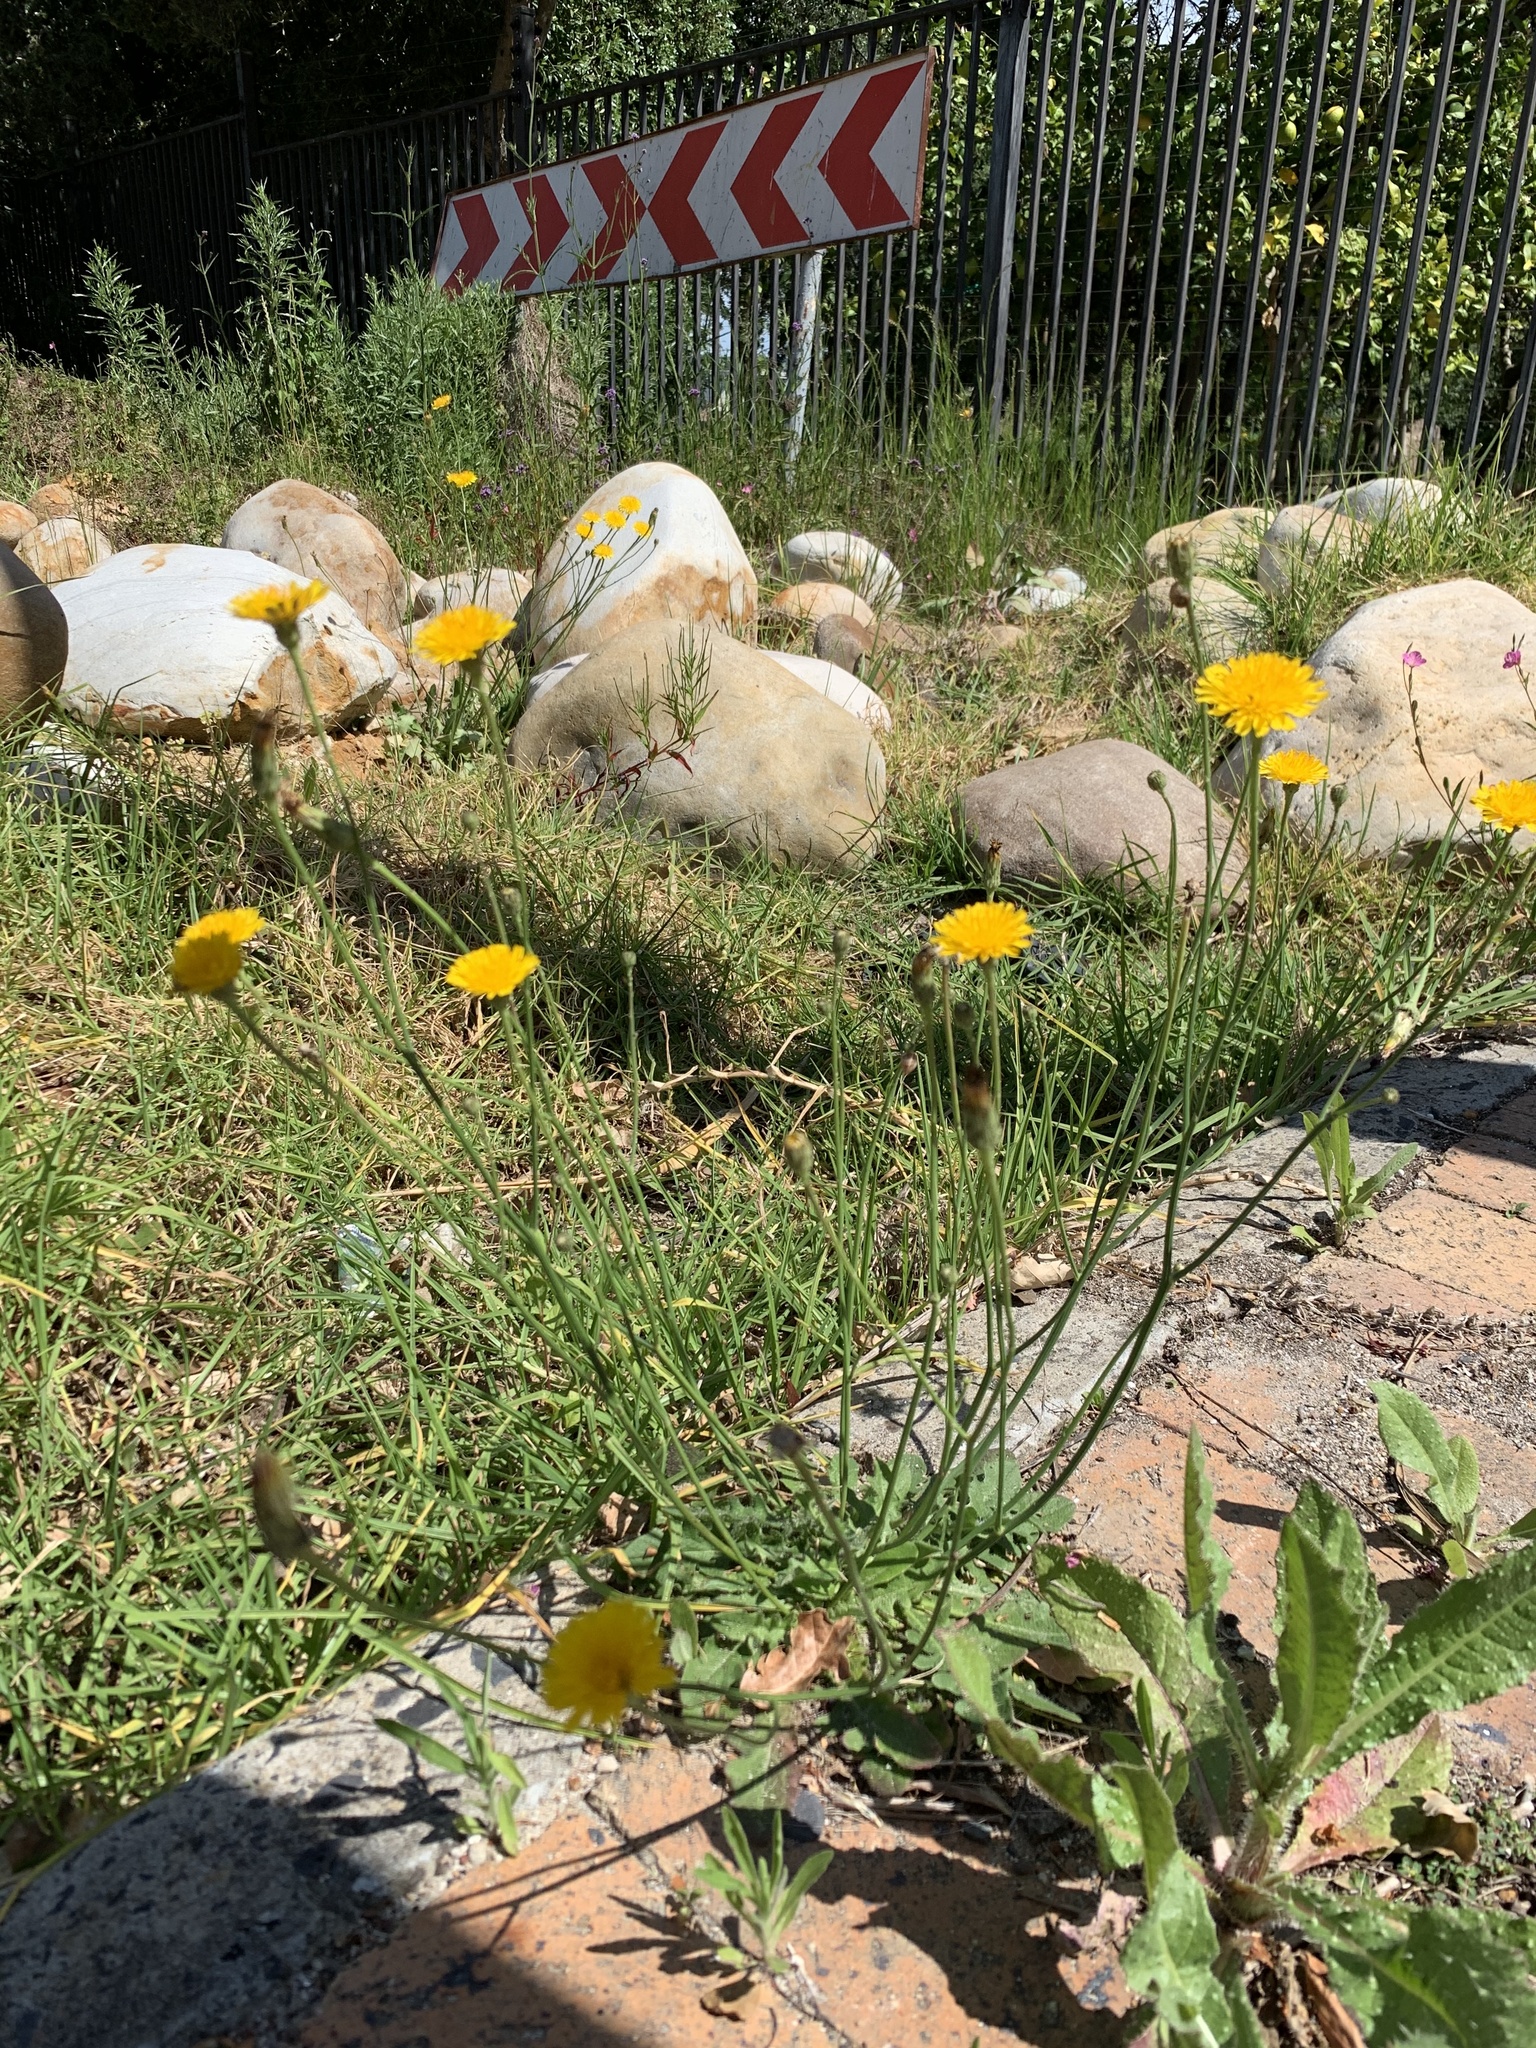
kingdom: Plantae
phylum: Tracheophyta
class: Magnoliopsida
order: Asterales
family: Asteraceae
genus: Hypochaeris
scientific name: Hypochaeris radicata
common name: Flatweed
